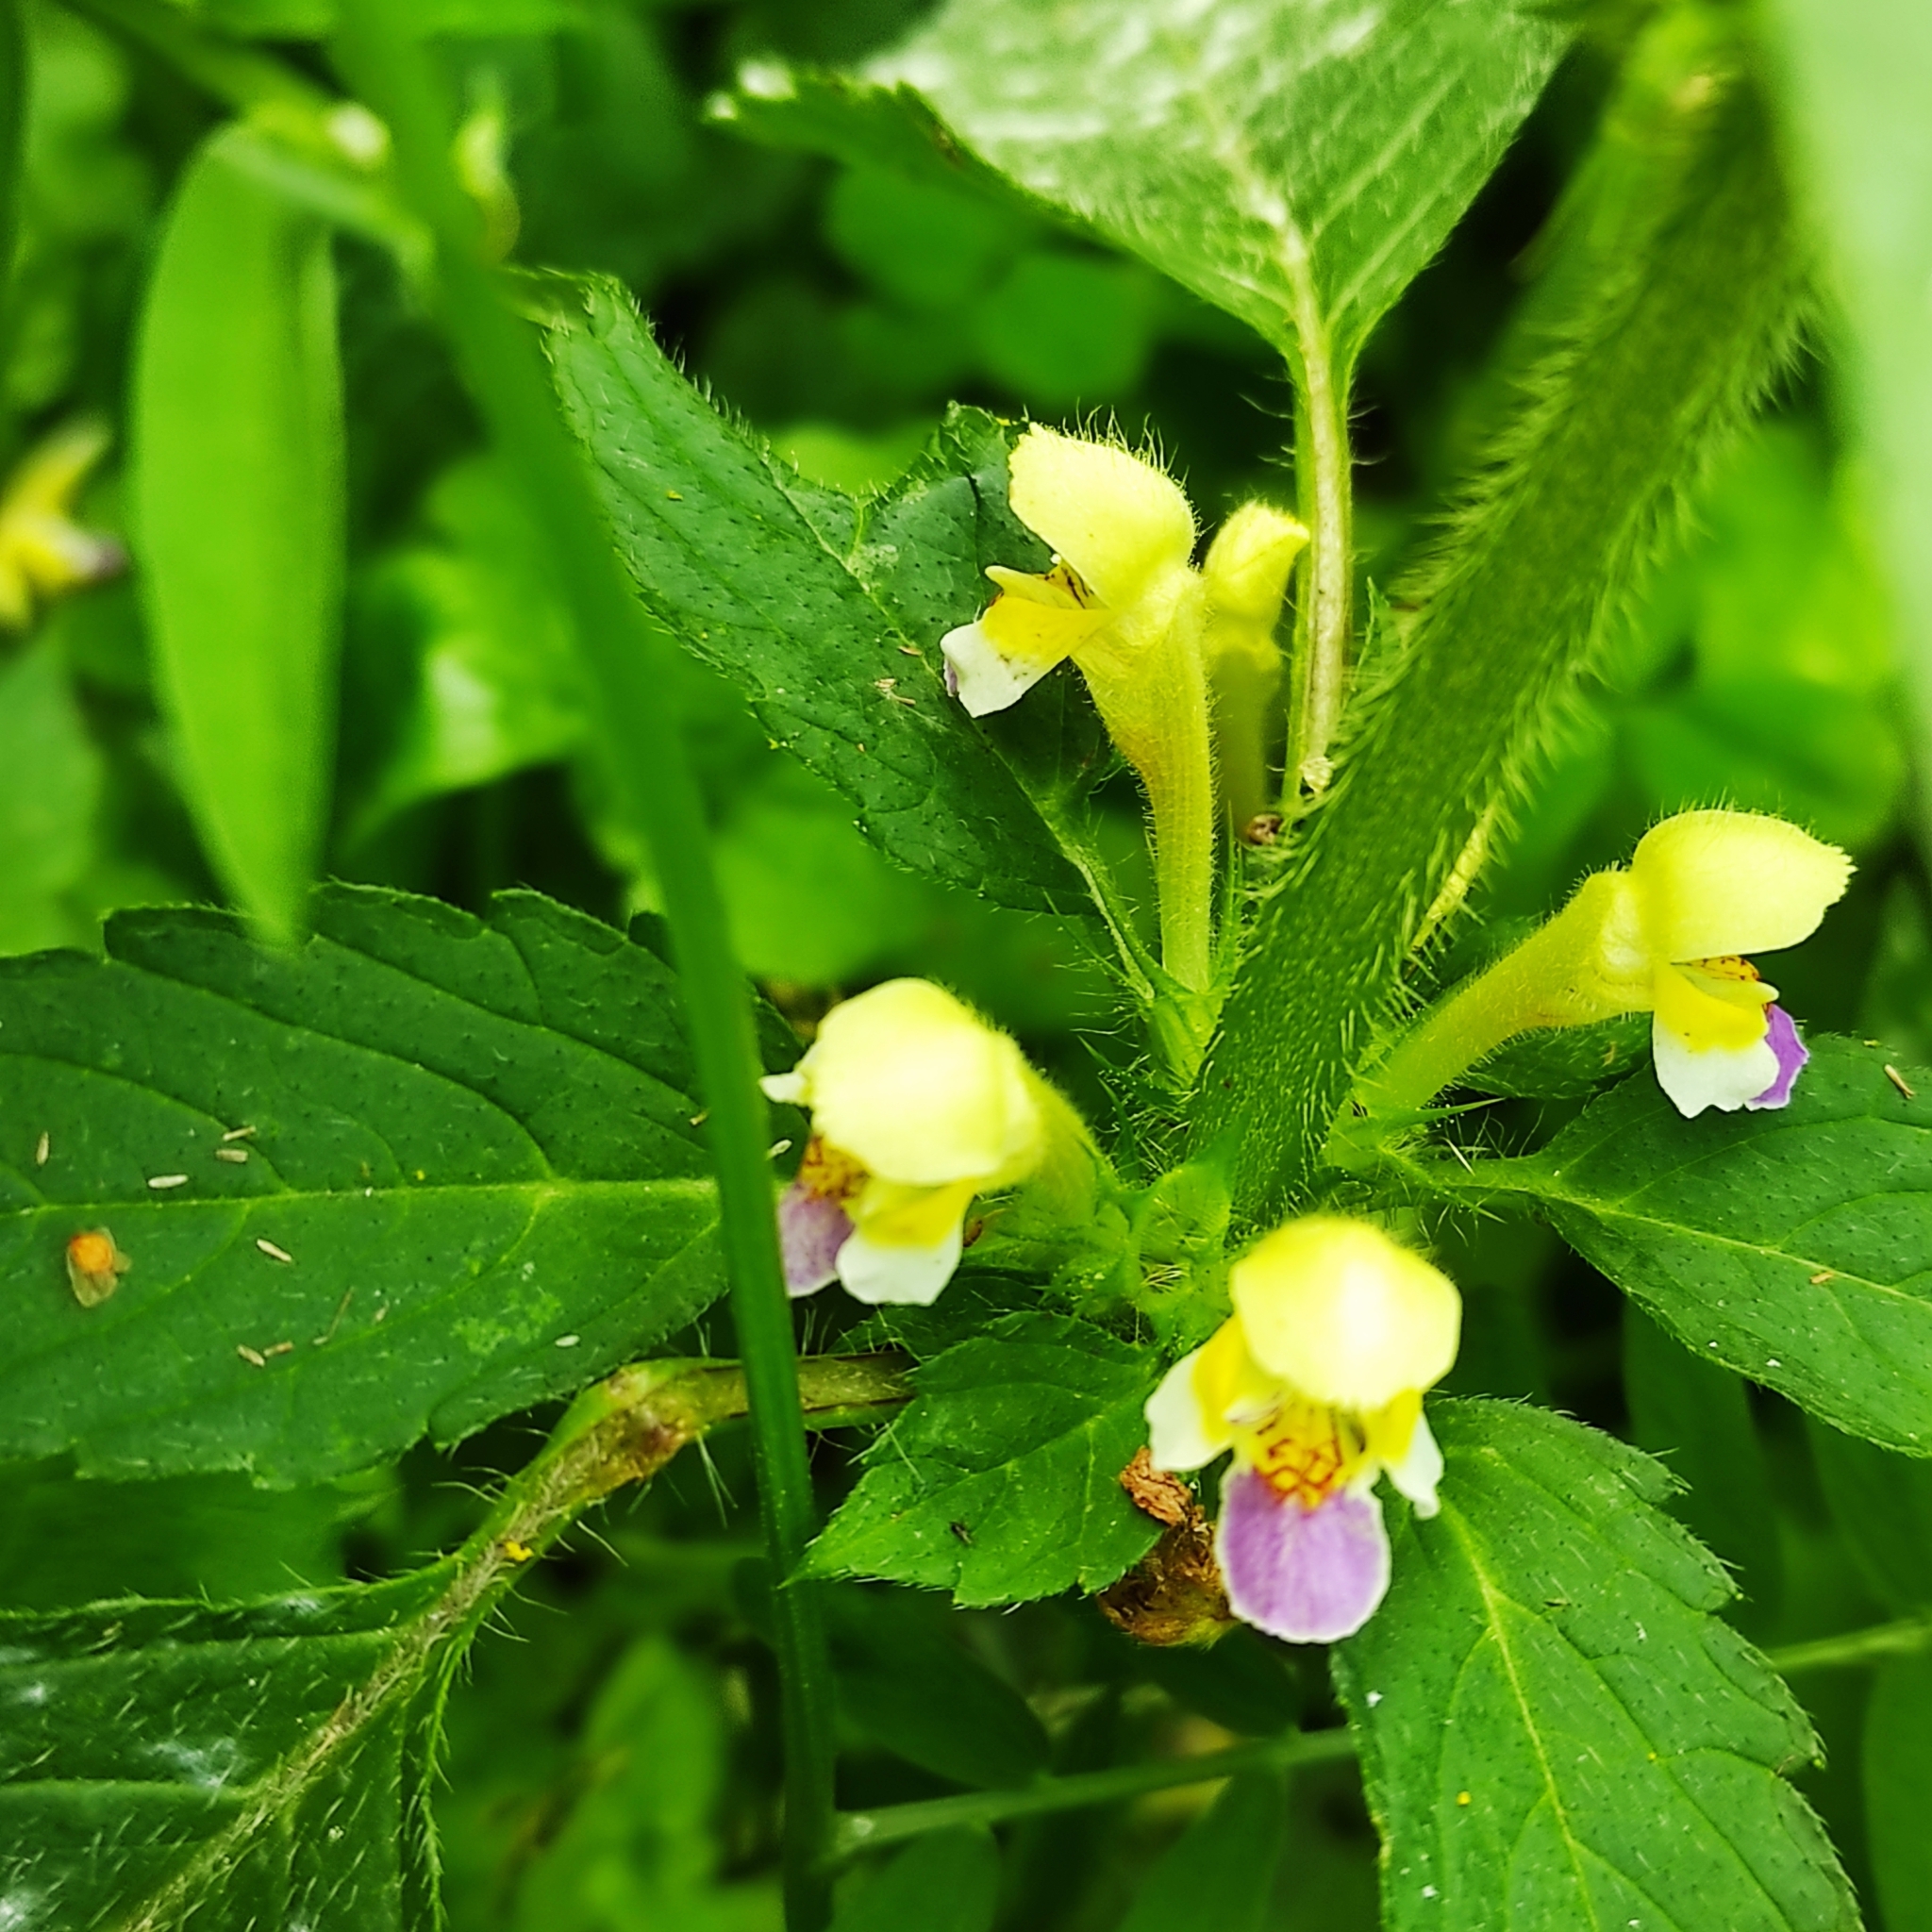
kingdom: Plantae
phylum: Tracheophyta
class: Magnoliopsida
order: Lamiales
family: Lamiaceae
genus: Galeopsis
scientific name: Galeopsis speciosa
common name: Large-flowered hemp-nettle
